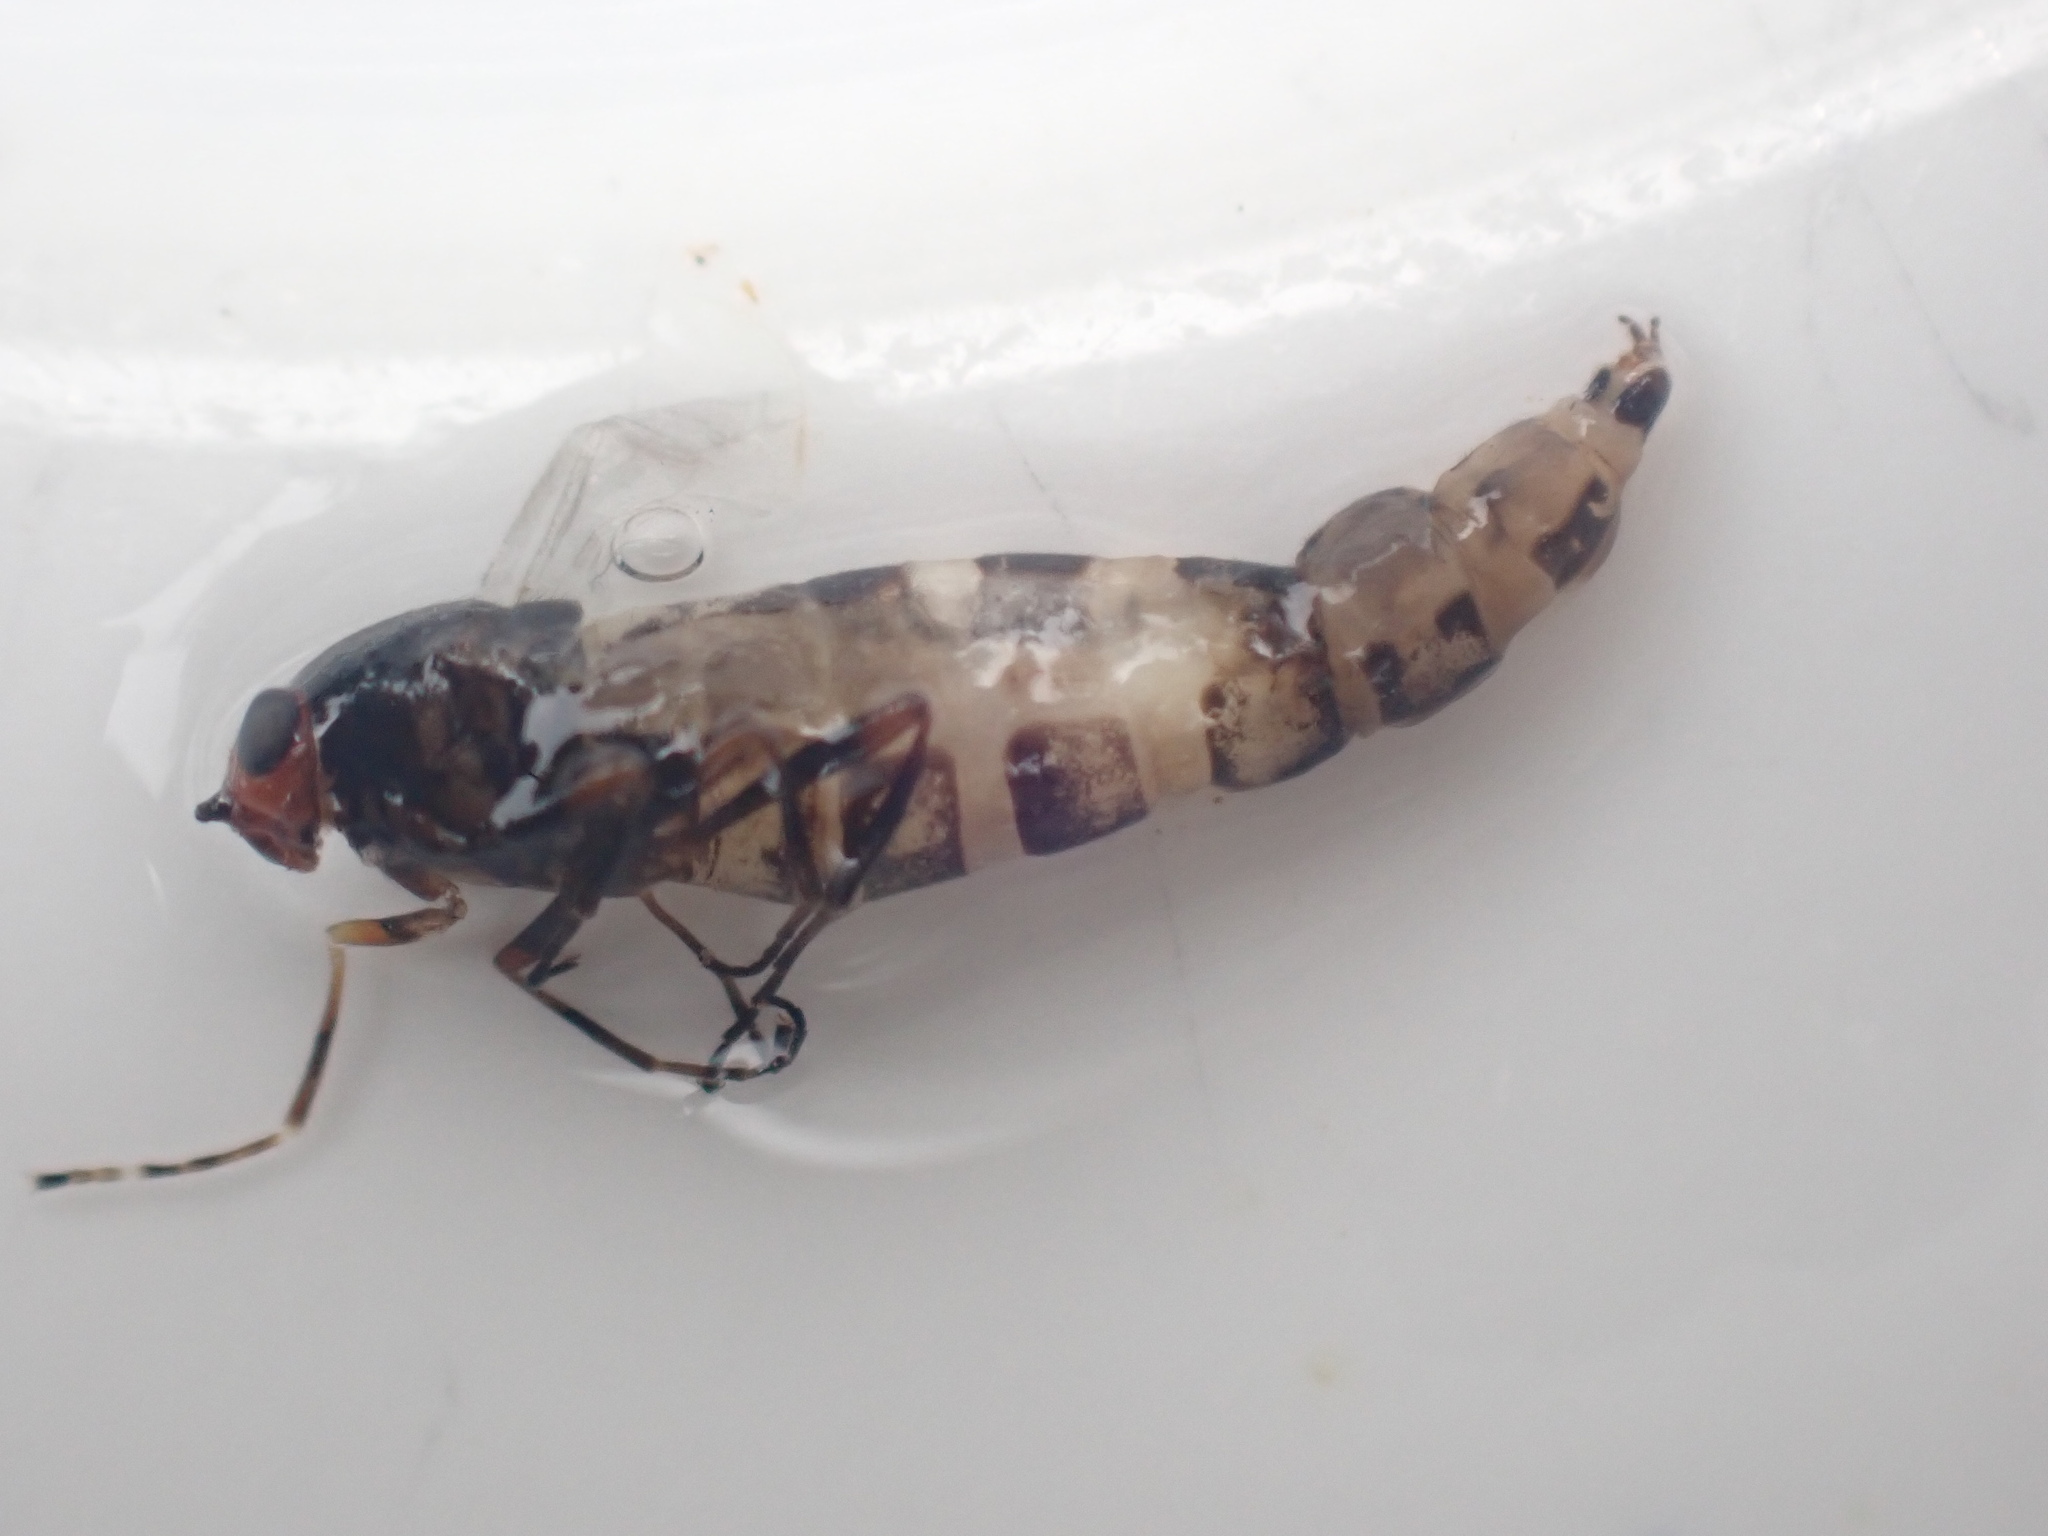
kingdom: Animalia
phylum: Arthropoda
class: Insecta
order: Diptera
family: Stratiomyidae
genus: Inopus
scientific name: Inopus rubriceps
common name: Soldier fly
